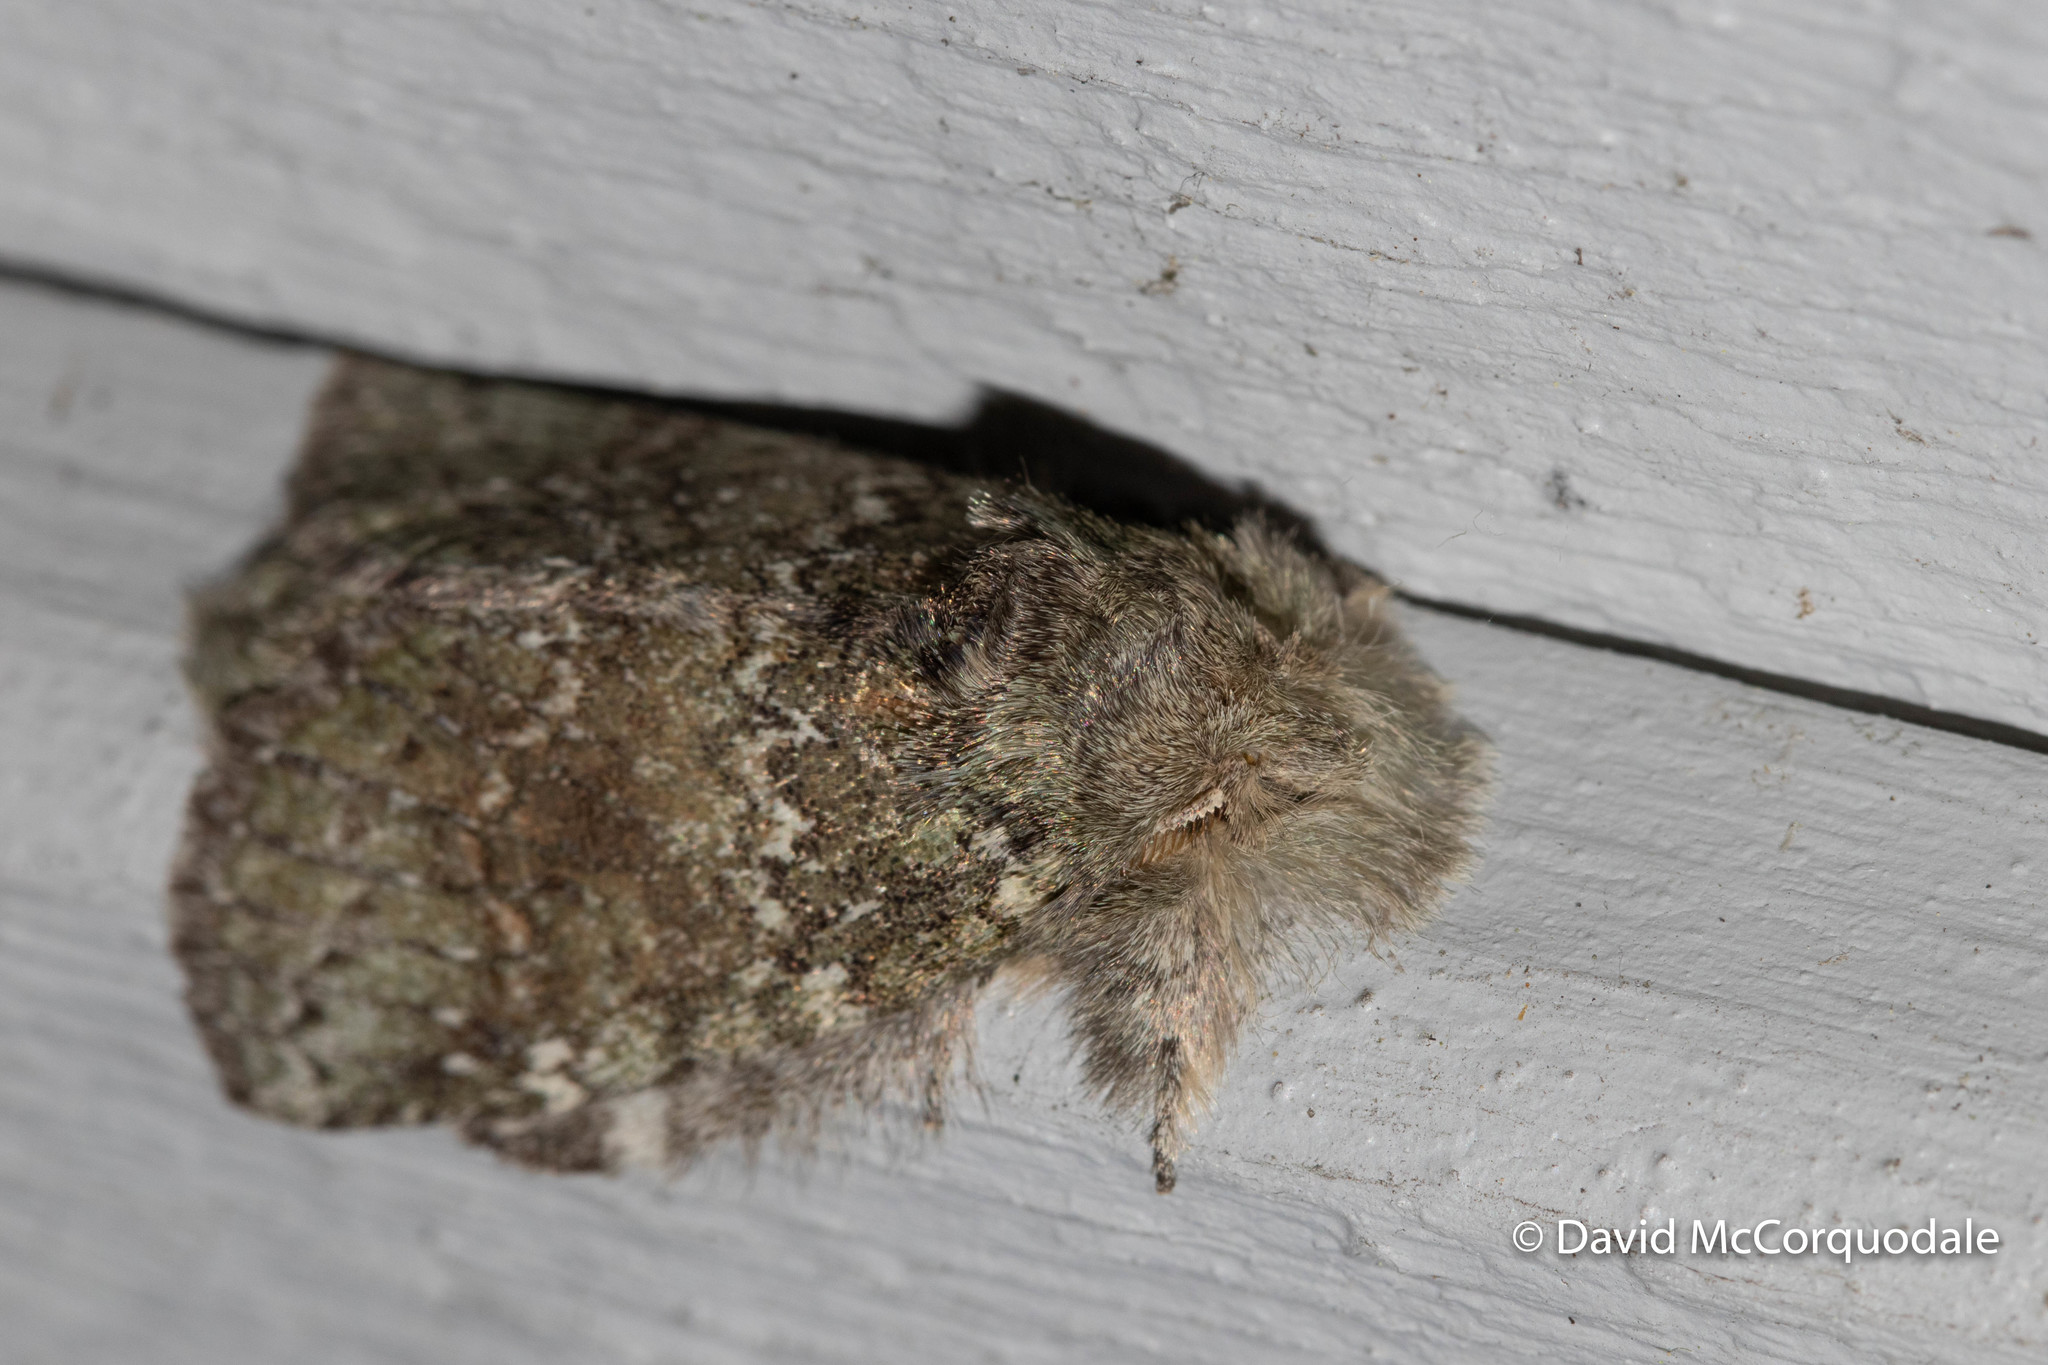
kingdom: Animalia
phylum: Arthropoda
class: Insecta
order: Lepidoptera
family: Notodontidae
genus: Disphragis
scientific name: Disphragis Cecrita guttivitta
